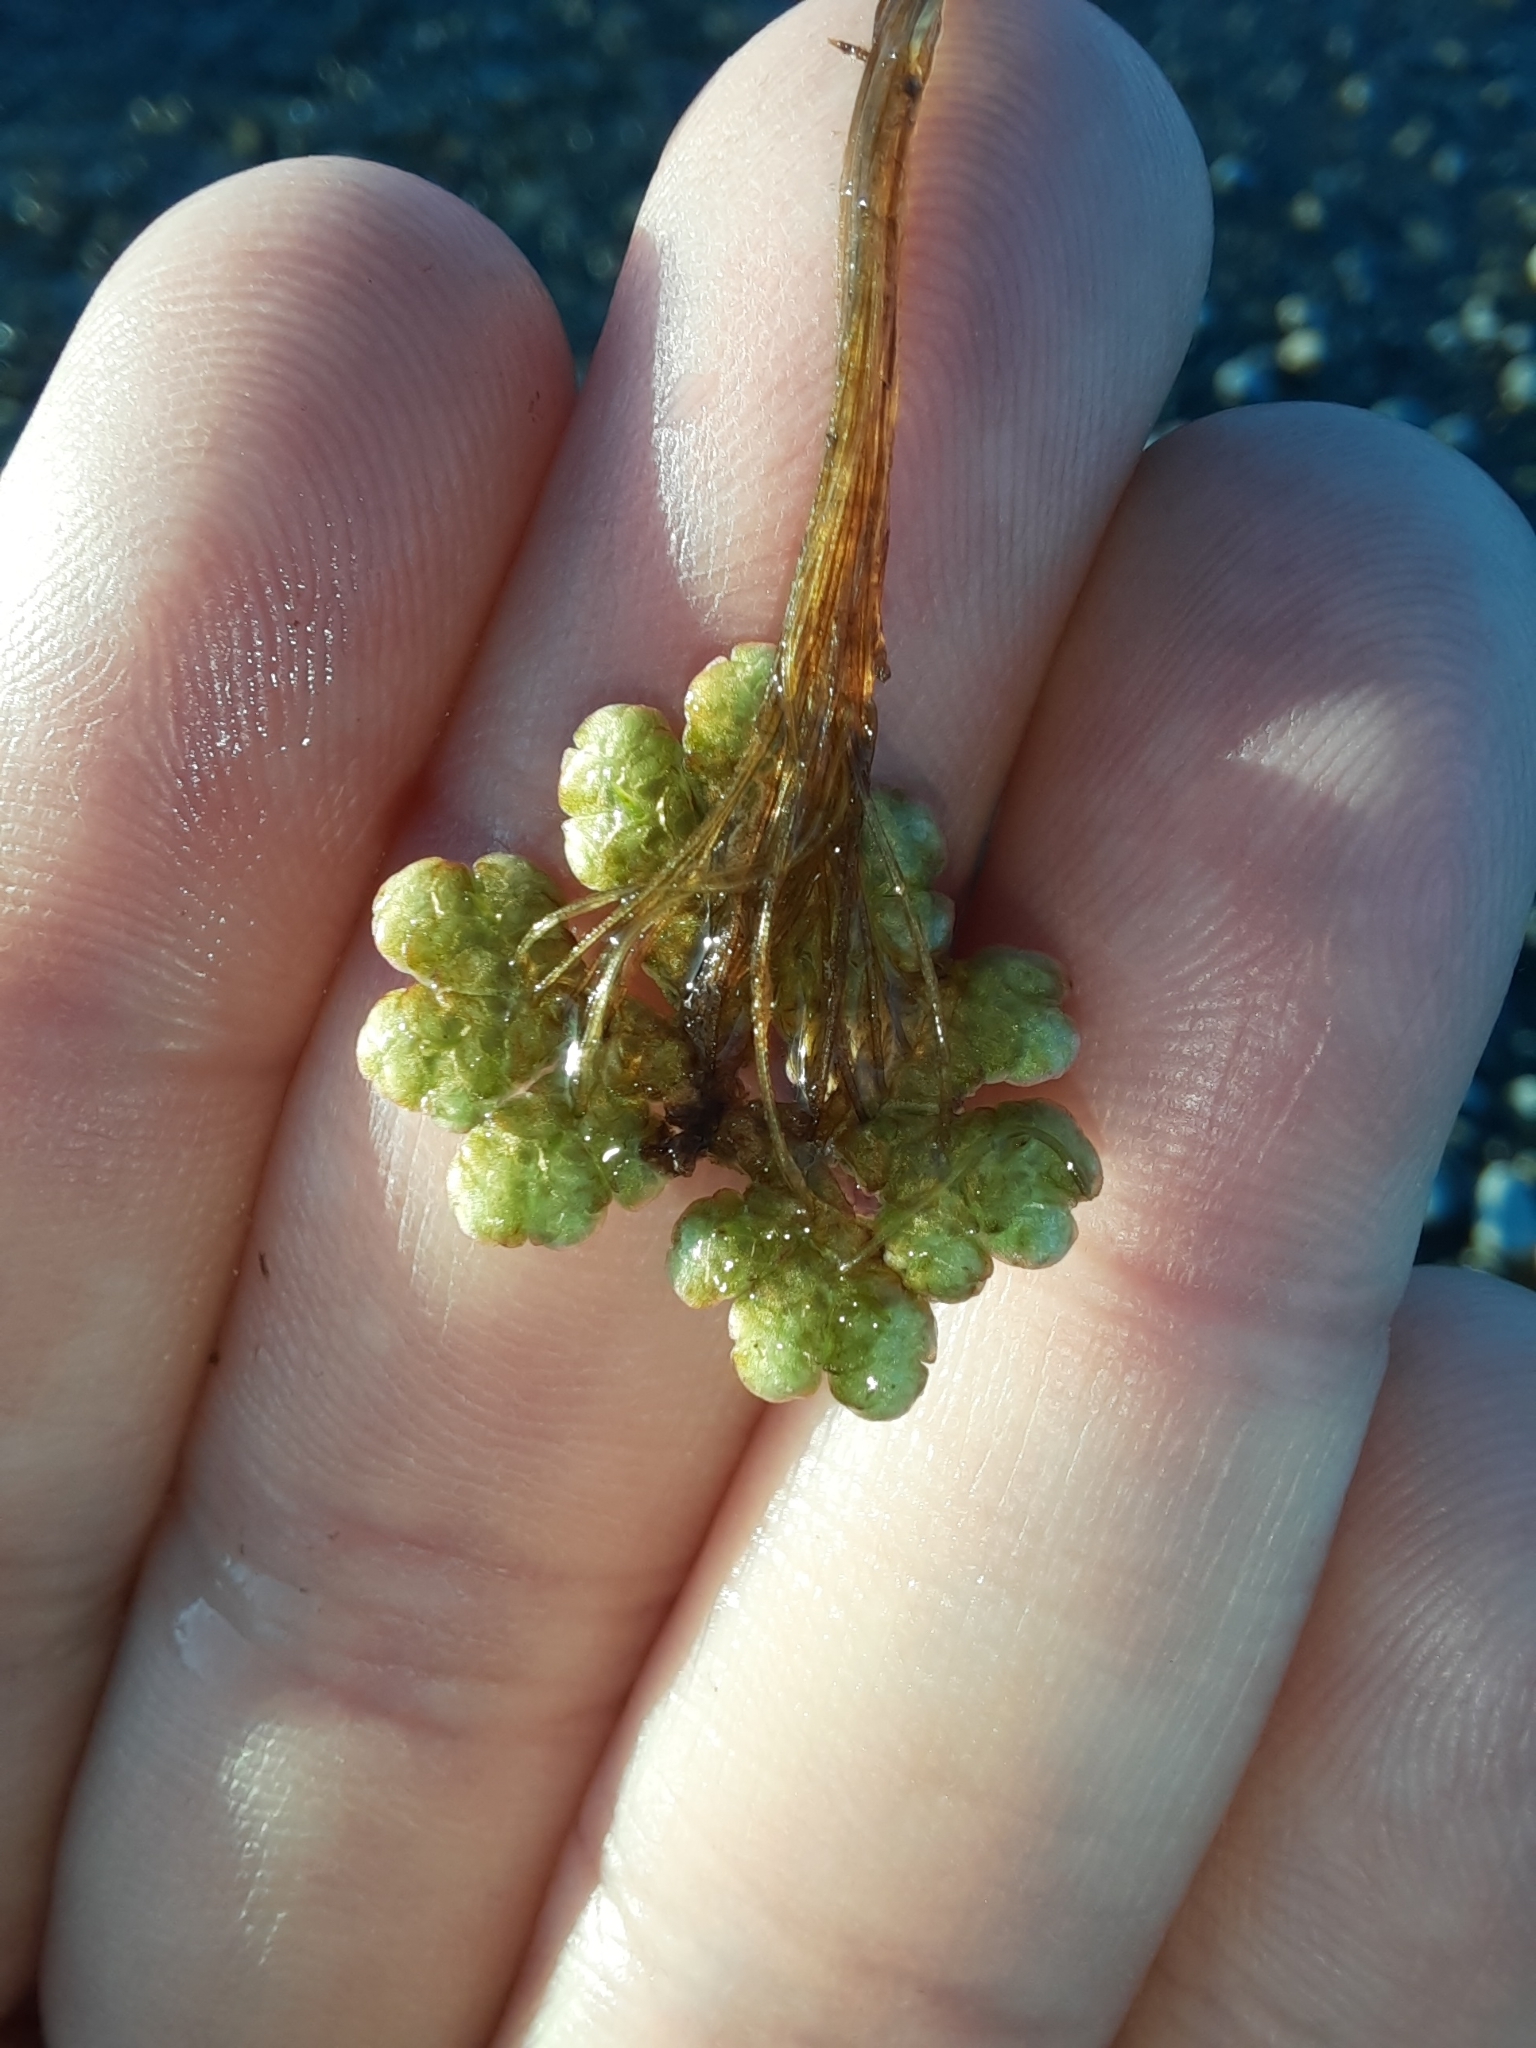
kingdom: Plantae
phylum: Tracheophyta
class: Polypodiopsida
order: Salviniales
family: Salviniaceae
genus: Azolla
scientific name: Azolla rubra
